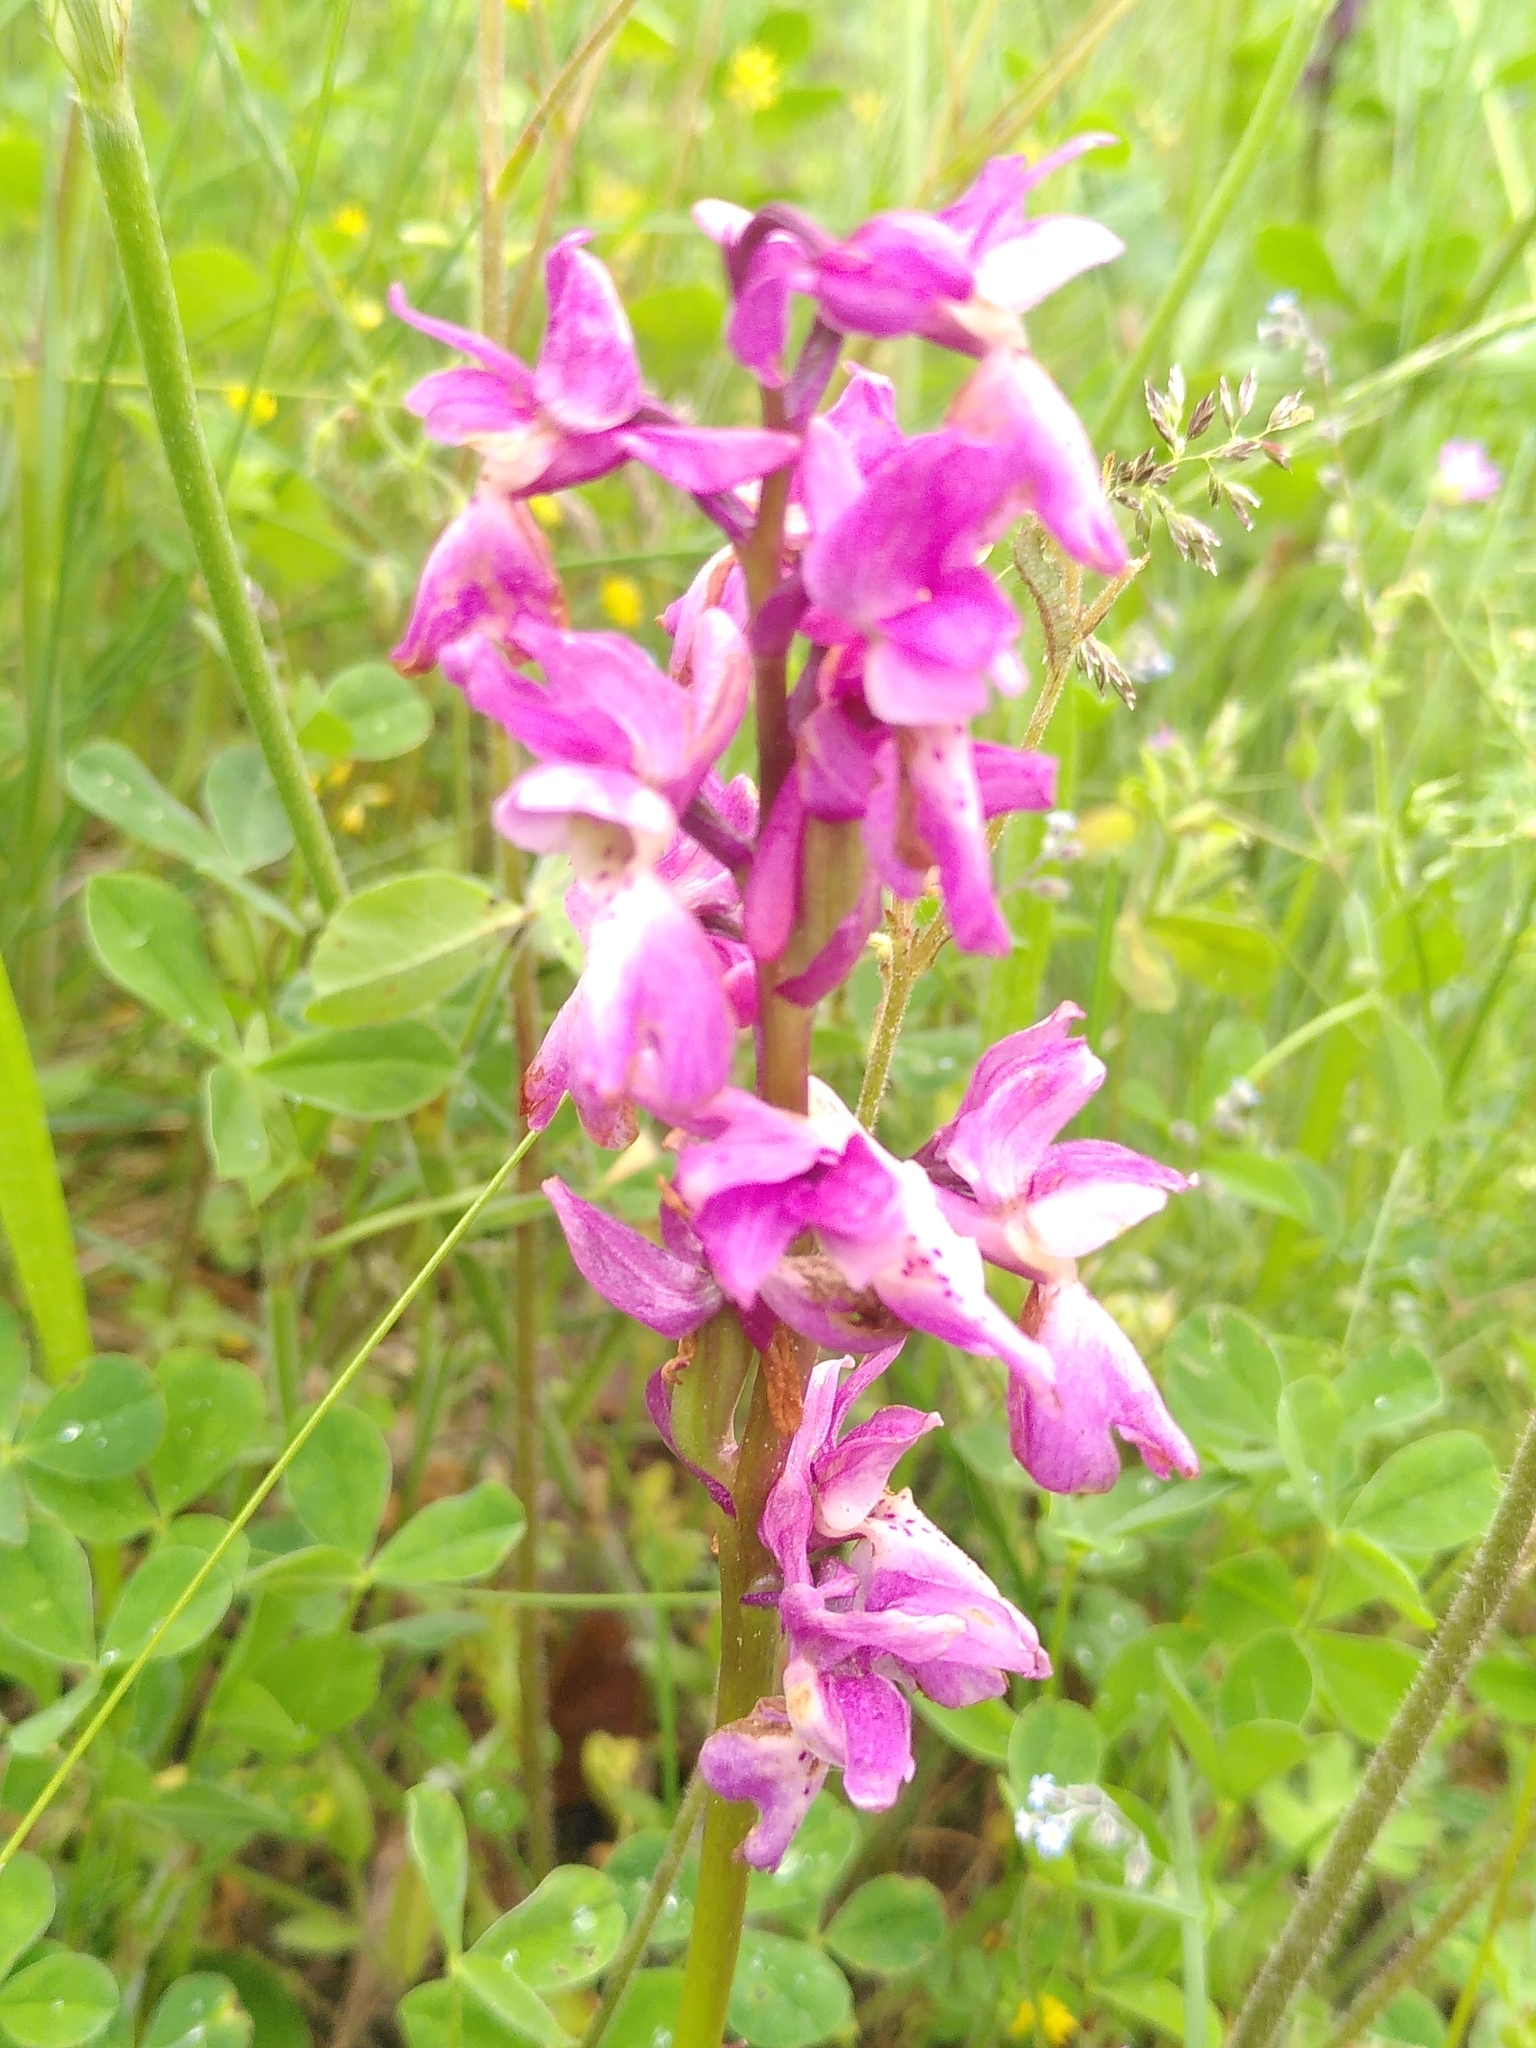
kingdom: Plantae
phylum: Tracheophyta
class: Liliopsida
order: Asparagales
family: Orchidaceae
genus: Orchis
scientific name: Orchis mascula
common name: Early-purple orchid
